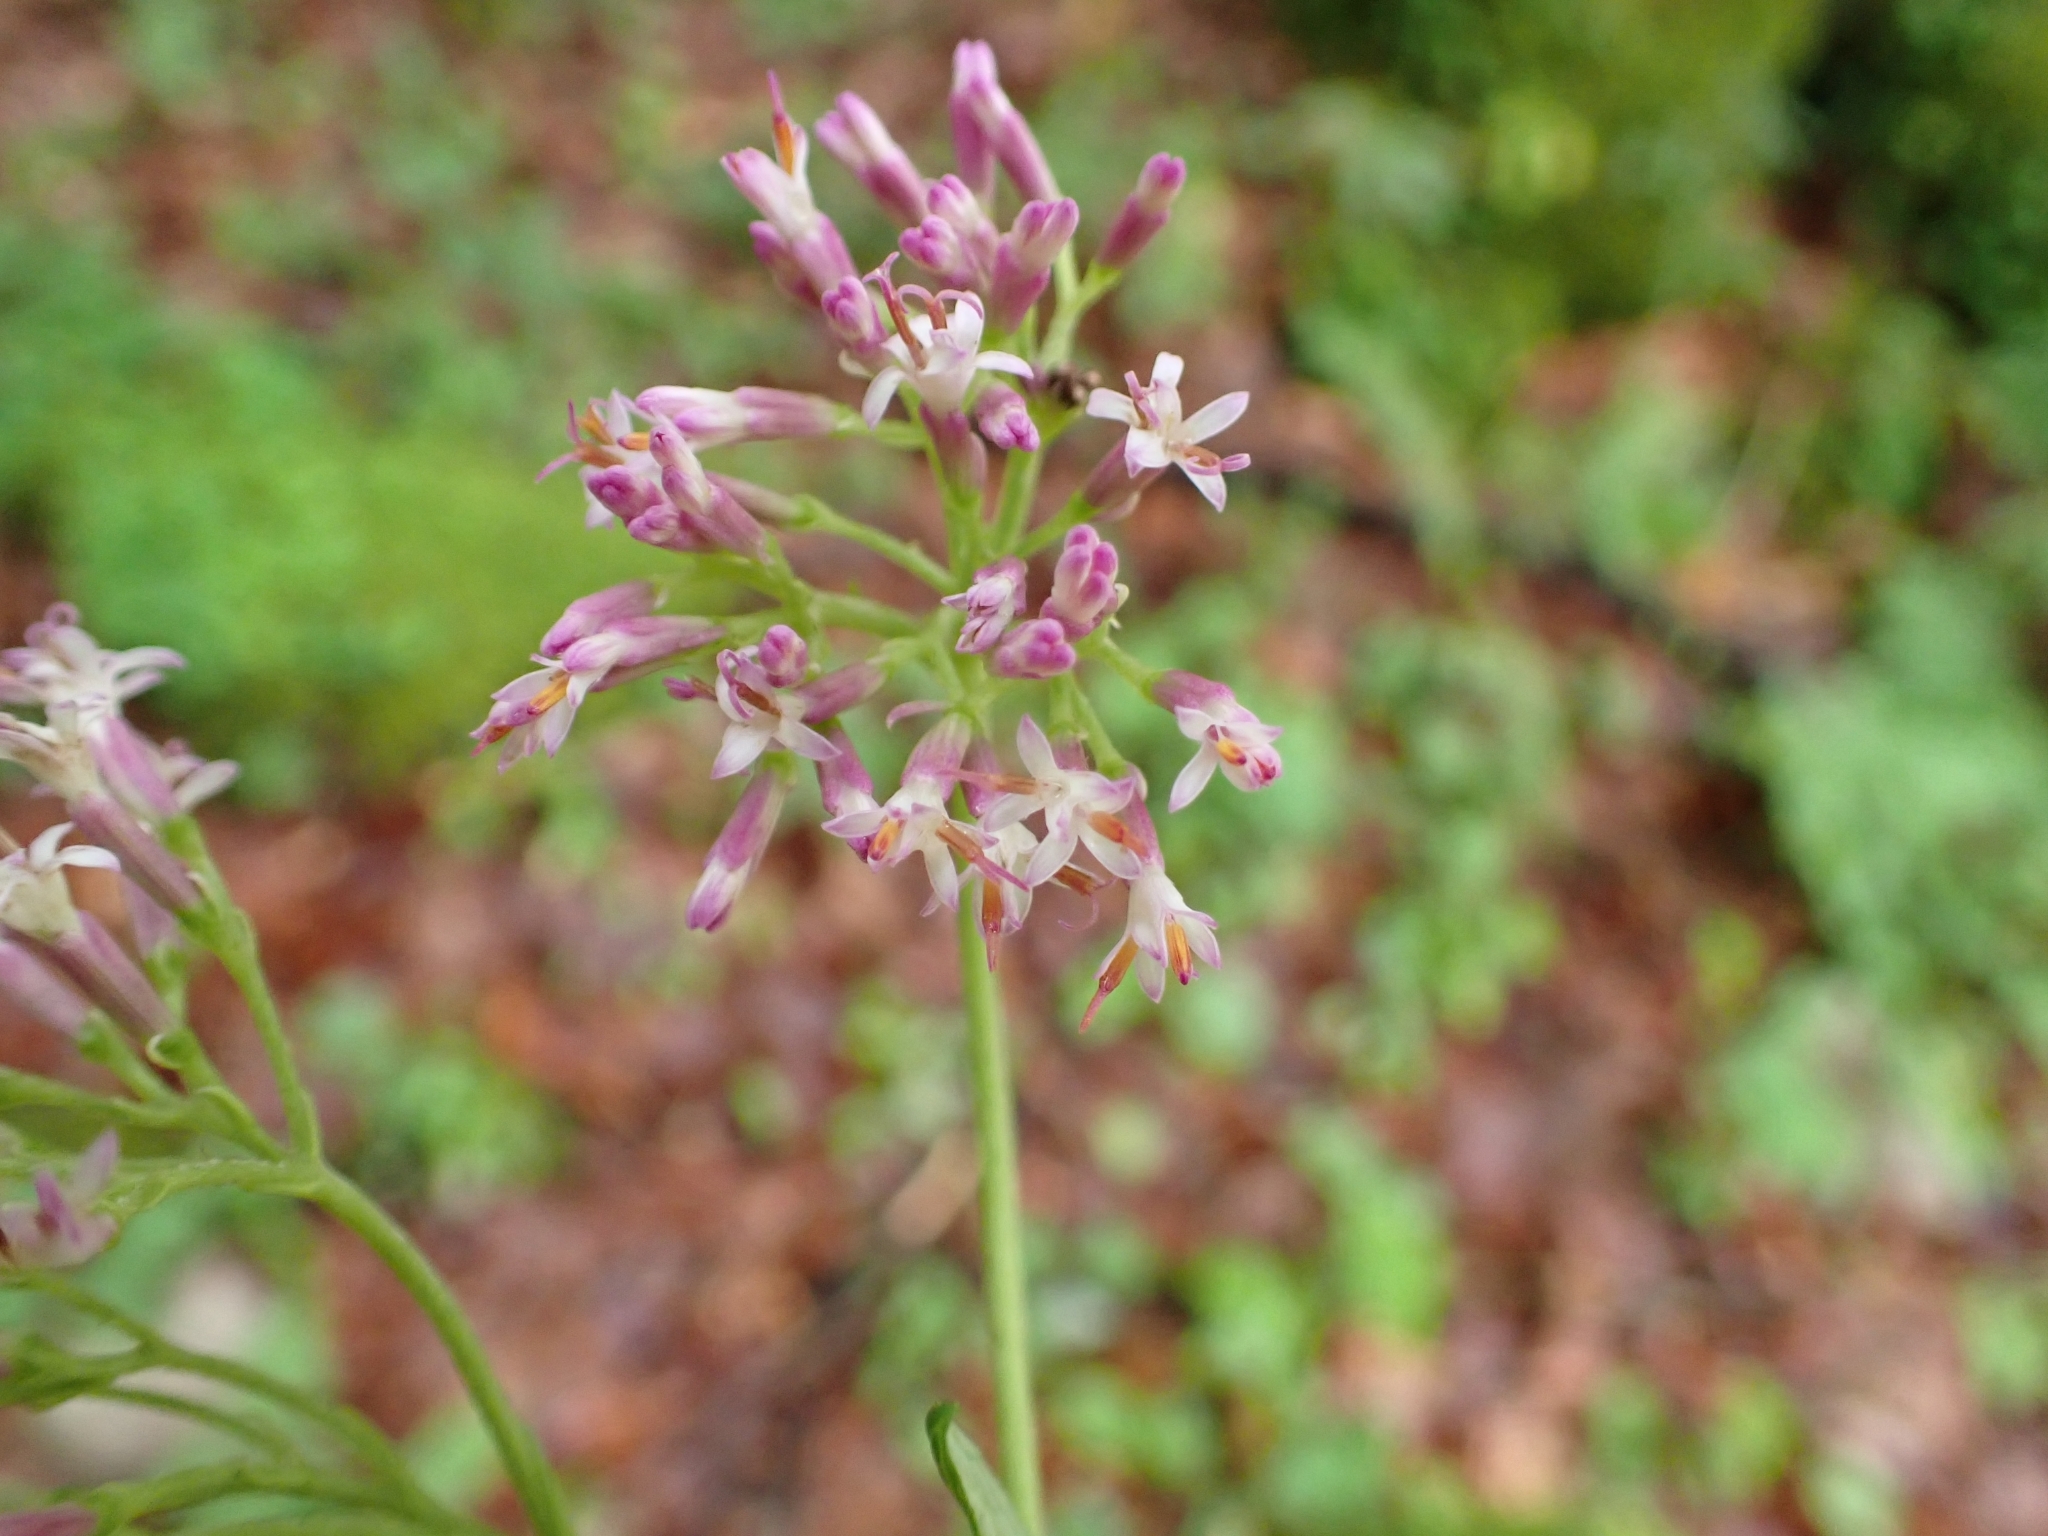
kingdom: Plantae
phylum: Tracheophyta
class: Magnoliopsida
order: Asterales
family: Asteraceae
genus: Adenostyles
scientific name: Adenostyles alpina
